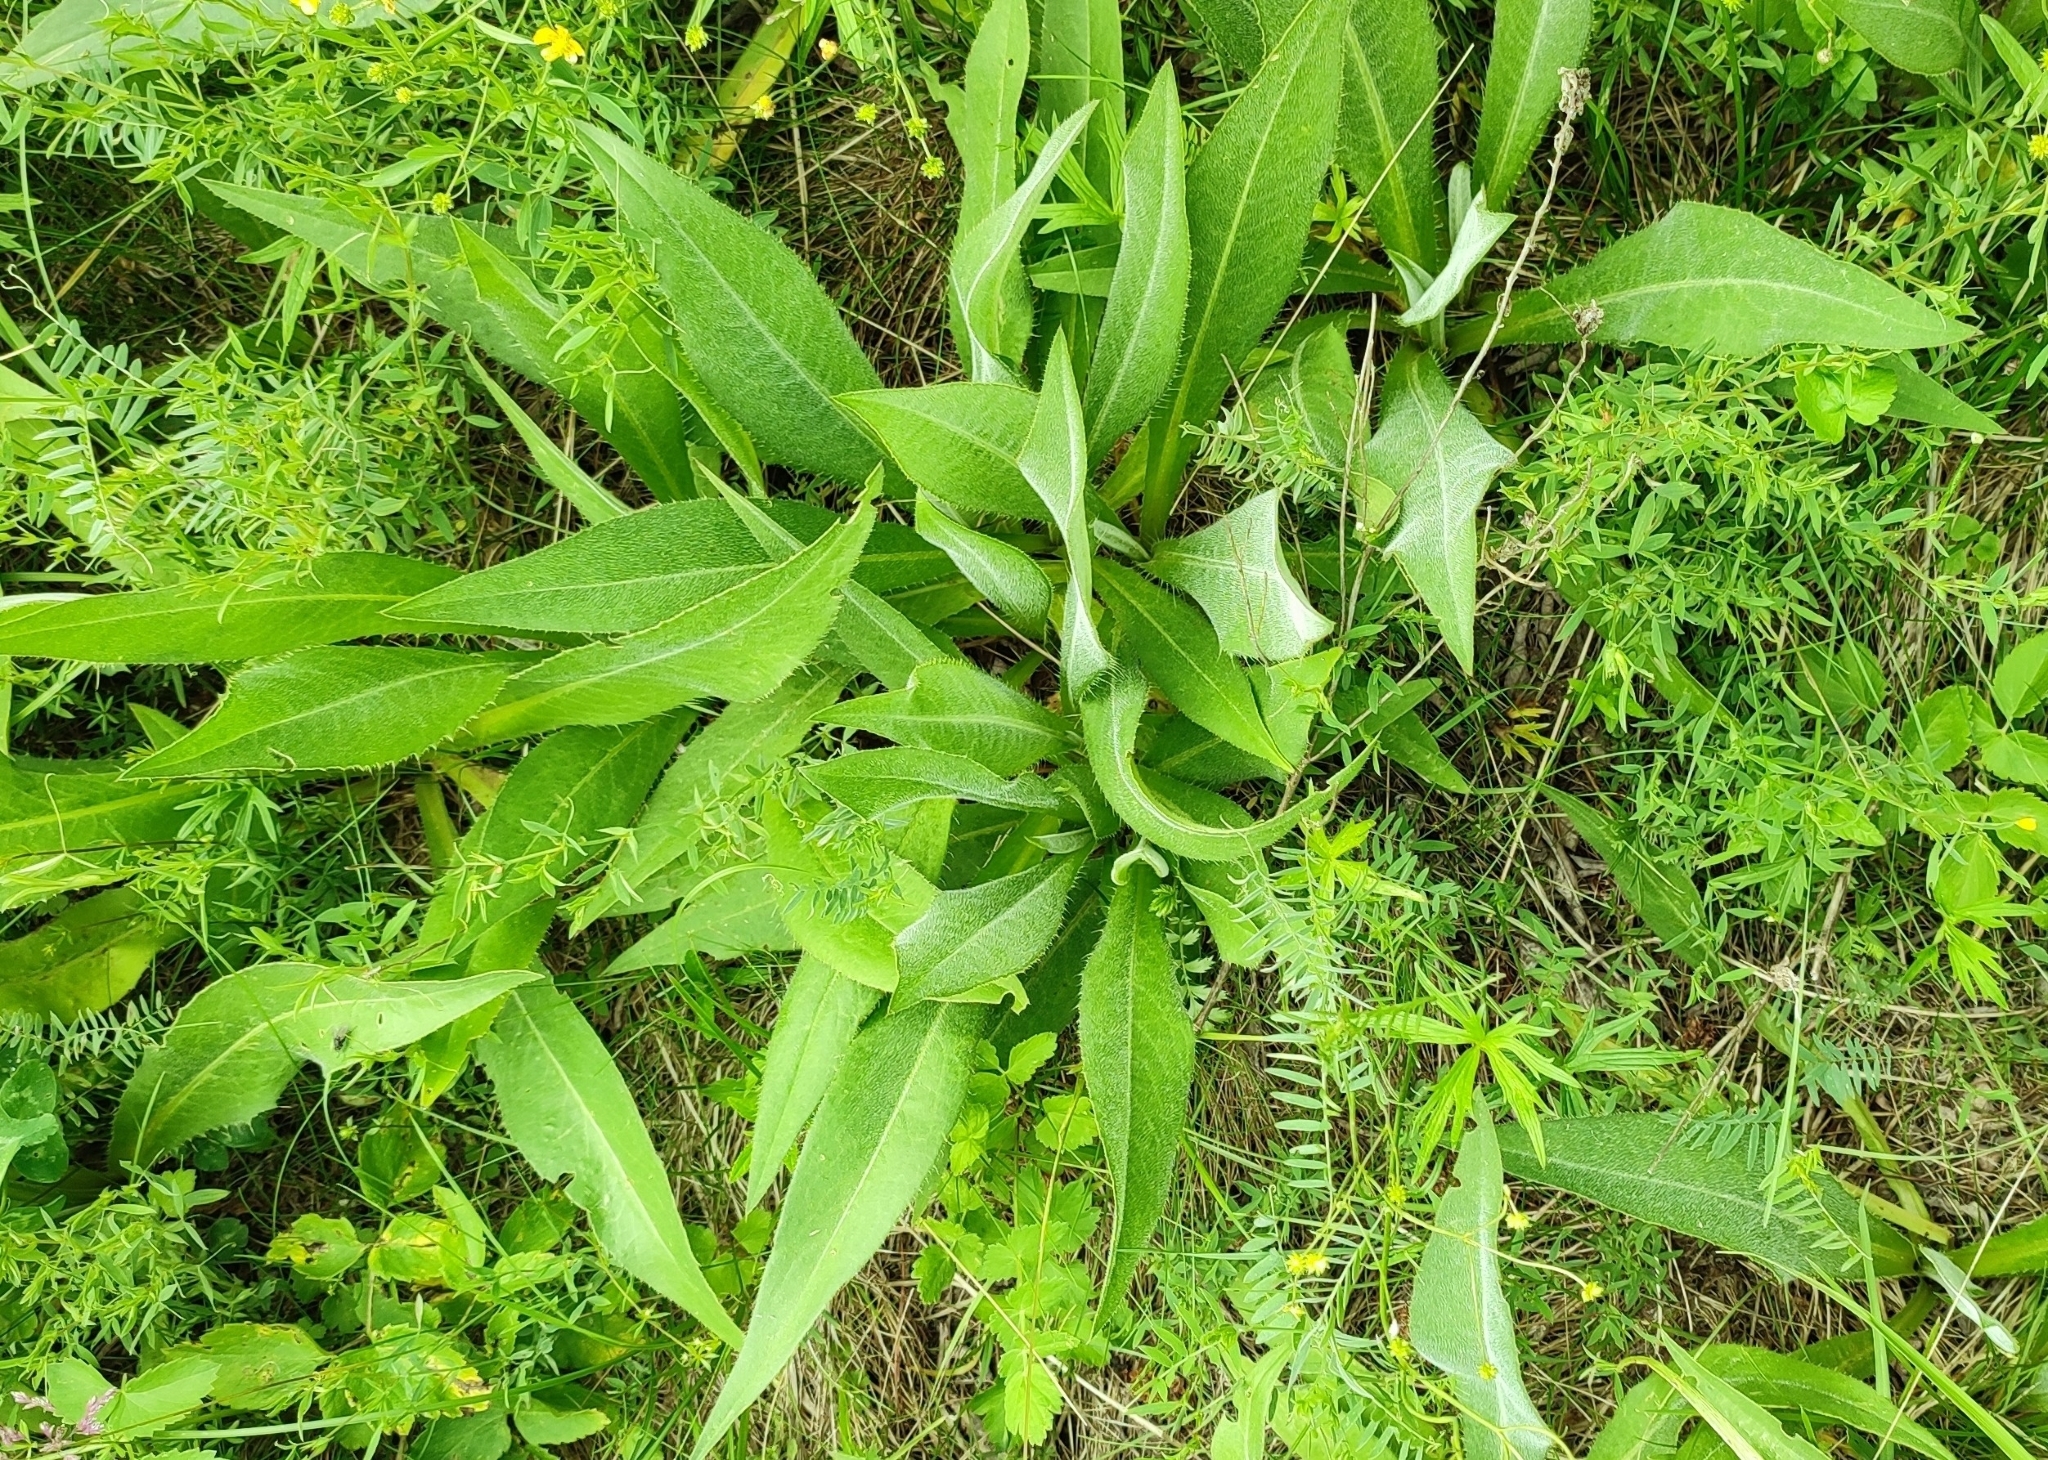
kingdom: Plantae
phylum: Tracheophyta
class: Magnoliopsida
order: Asterales
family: Asteraceae
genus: Cirsium
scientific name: Cirsium canum
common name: Queen anne's thistle
